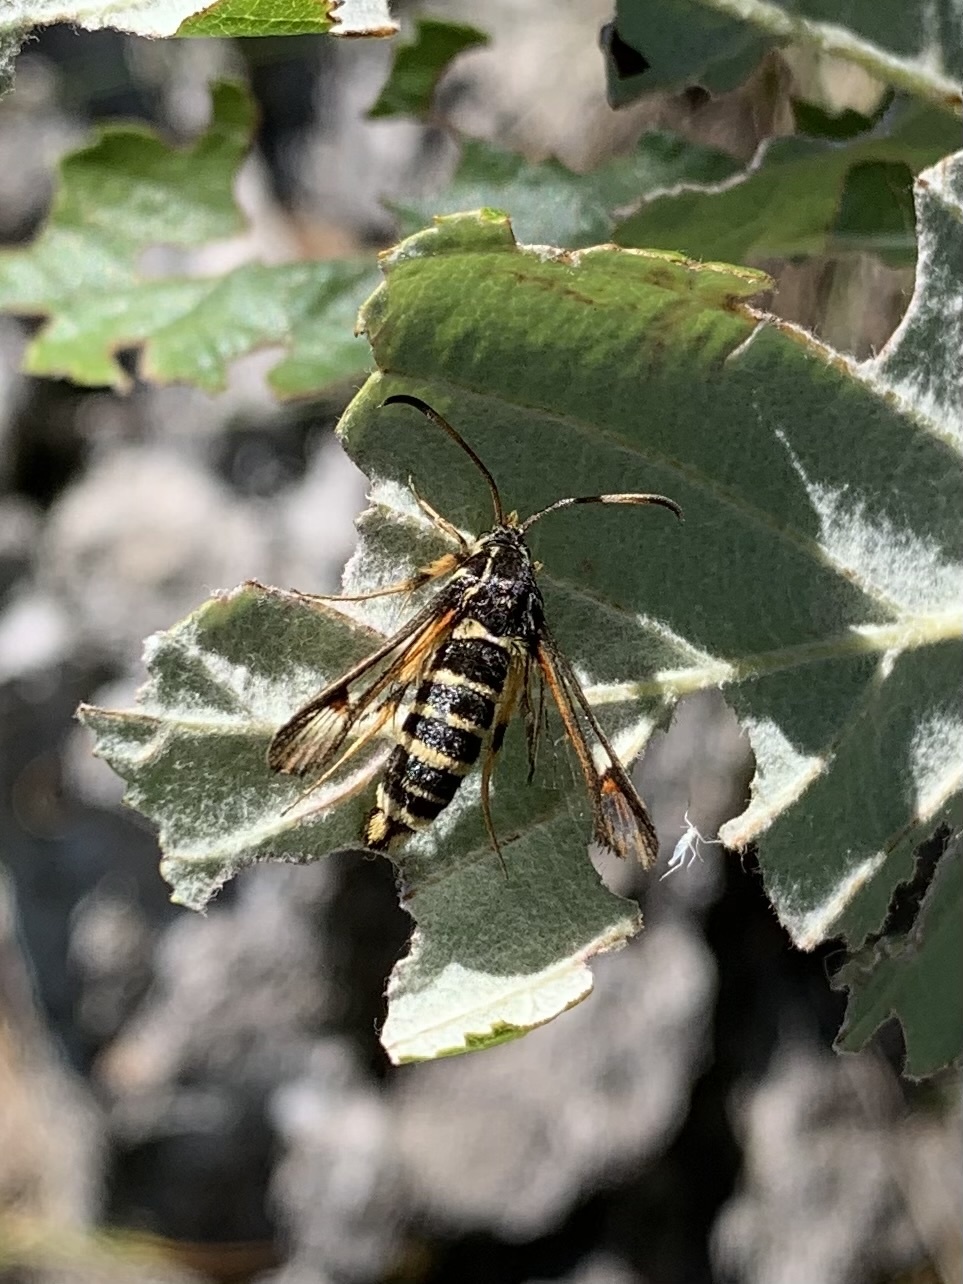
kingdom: Animalia
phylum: Arthropoda
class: Insecta
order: Lepidoptera
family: Sesiidae
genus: Bembecia
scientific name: Bembecia ichneumoniformis
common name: Six-belted clearwing
